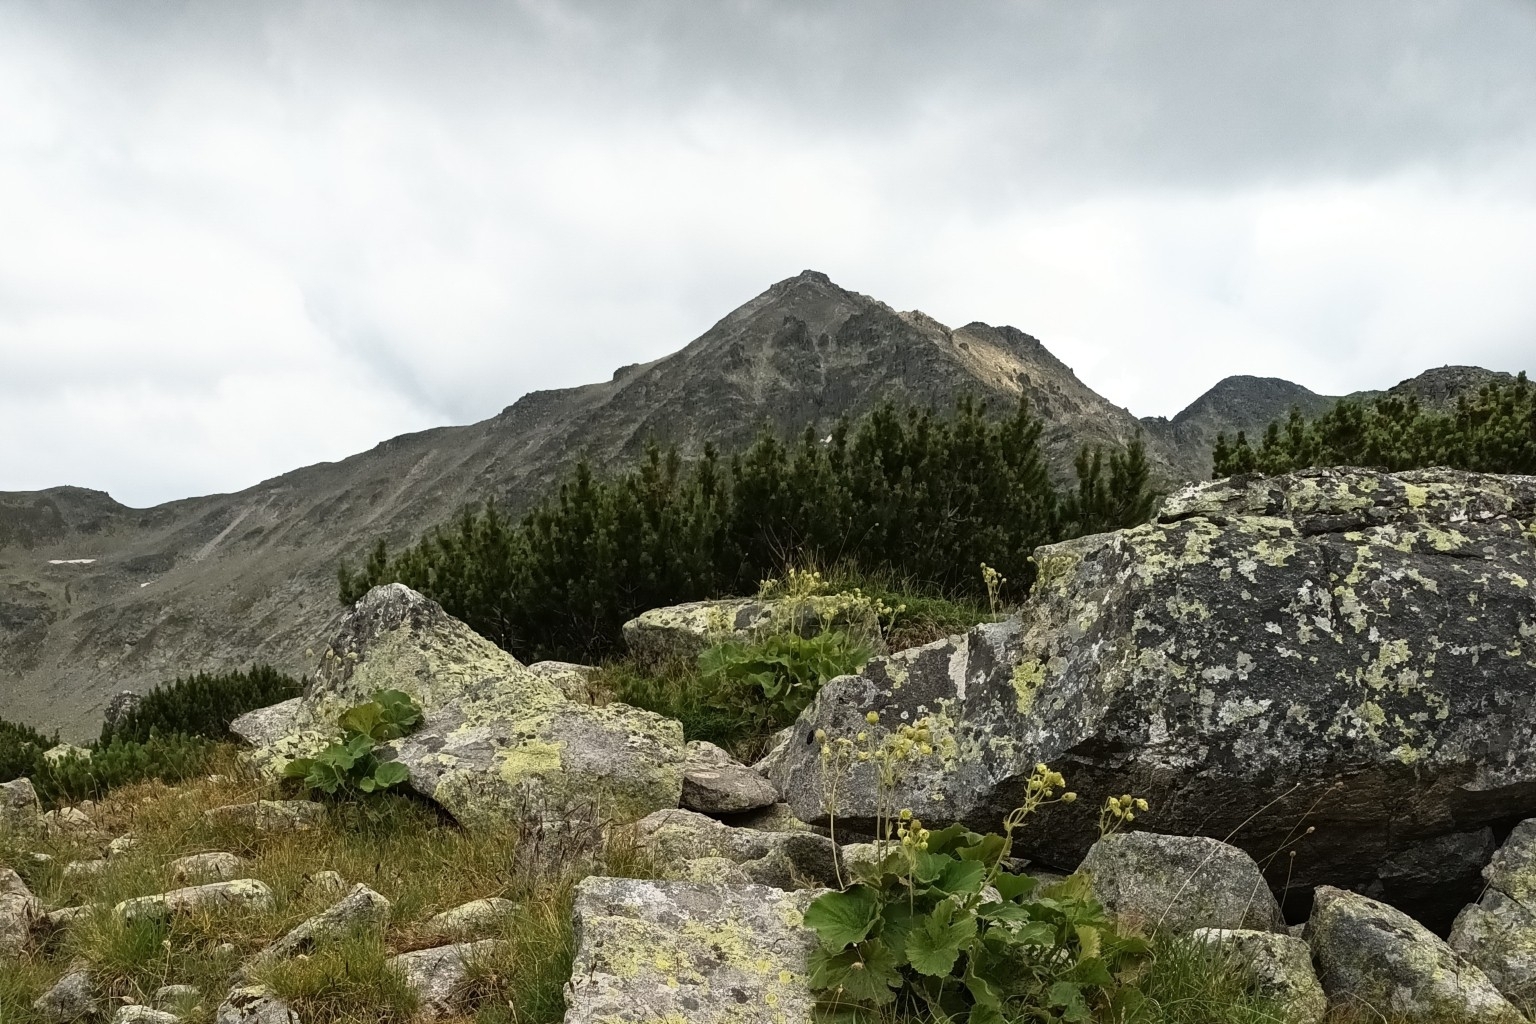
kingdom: Plantae
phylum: Tracheophyta
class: Pinopsida
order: Pinales
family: Pinaceae
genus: Pinus
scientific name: Pinus mugo
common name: Mugo pine
